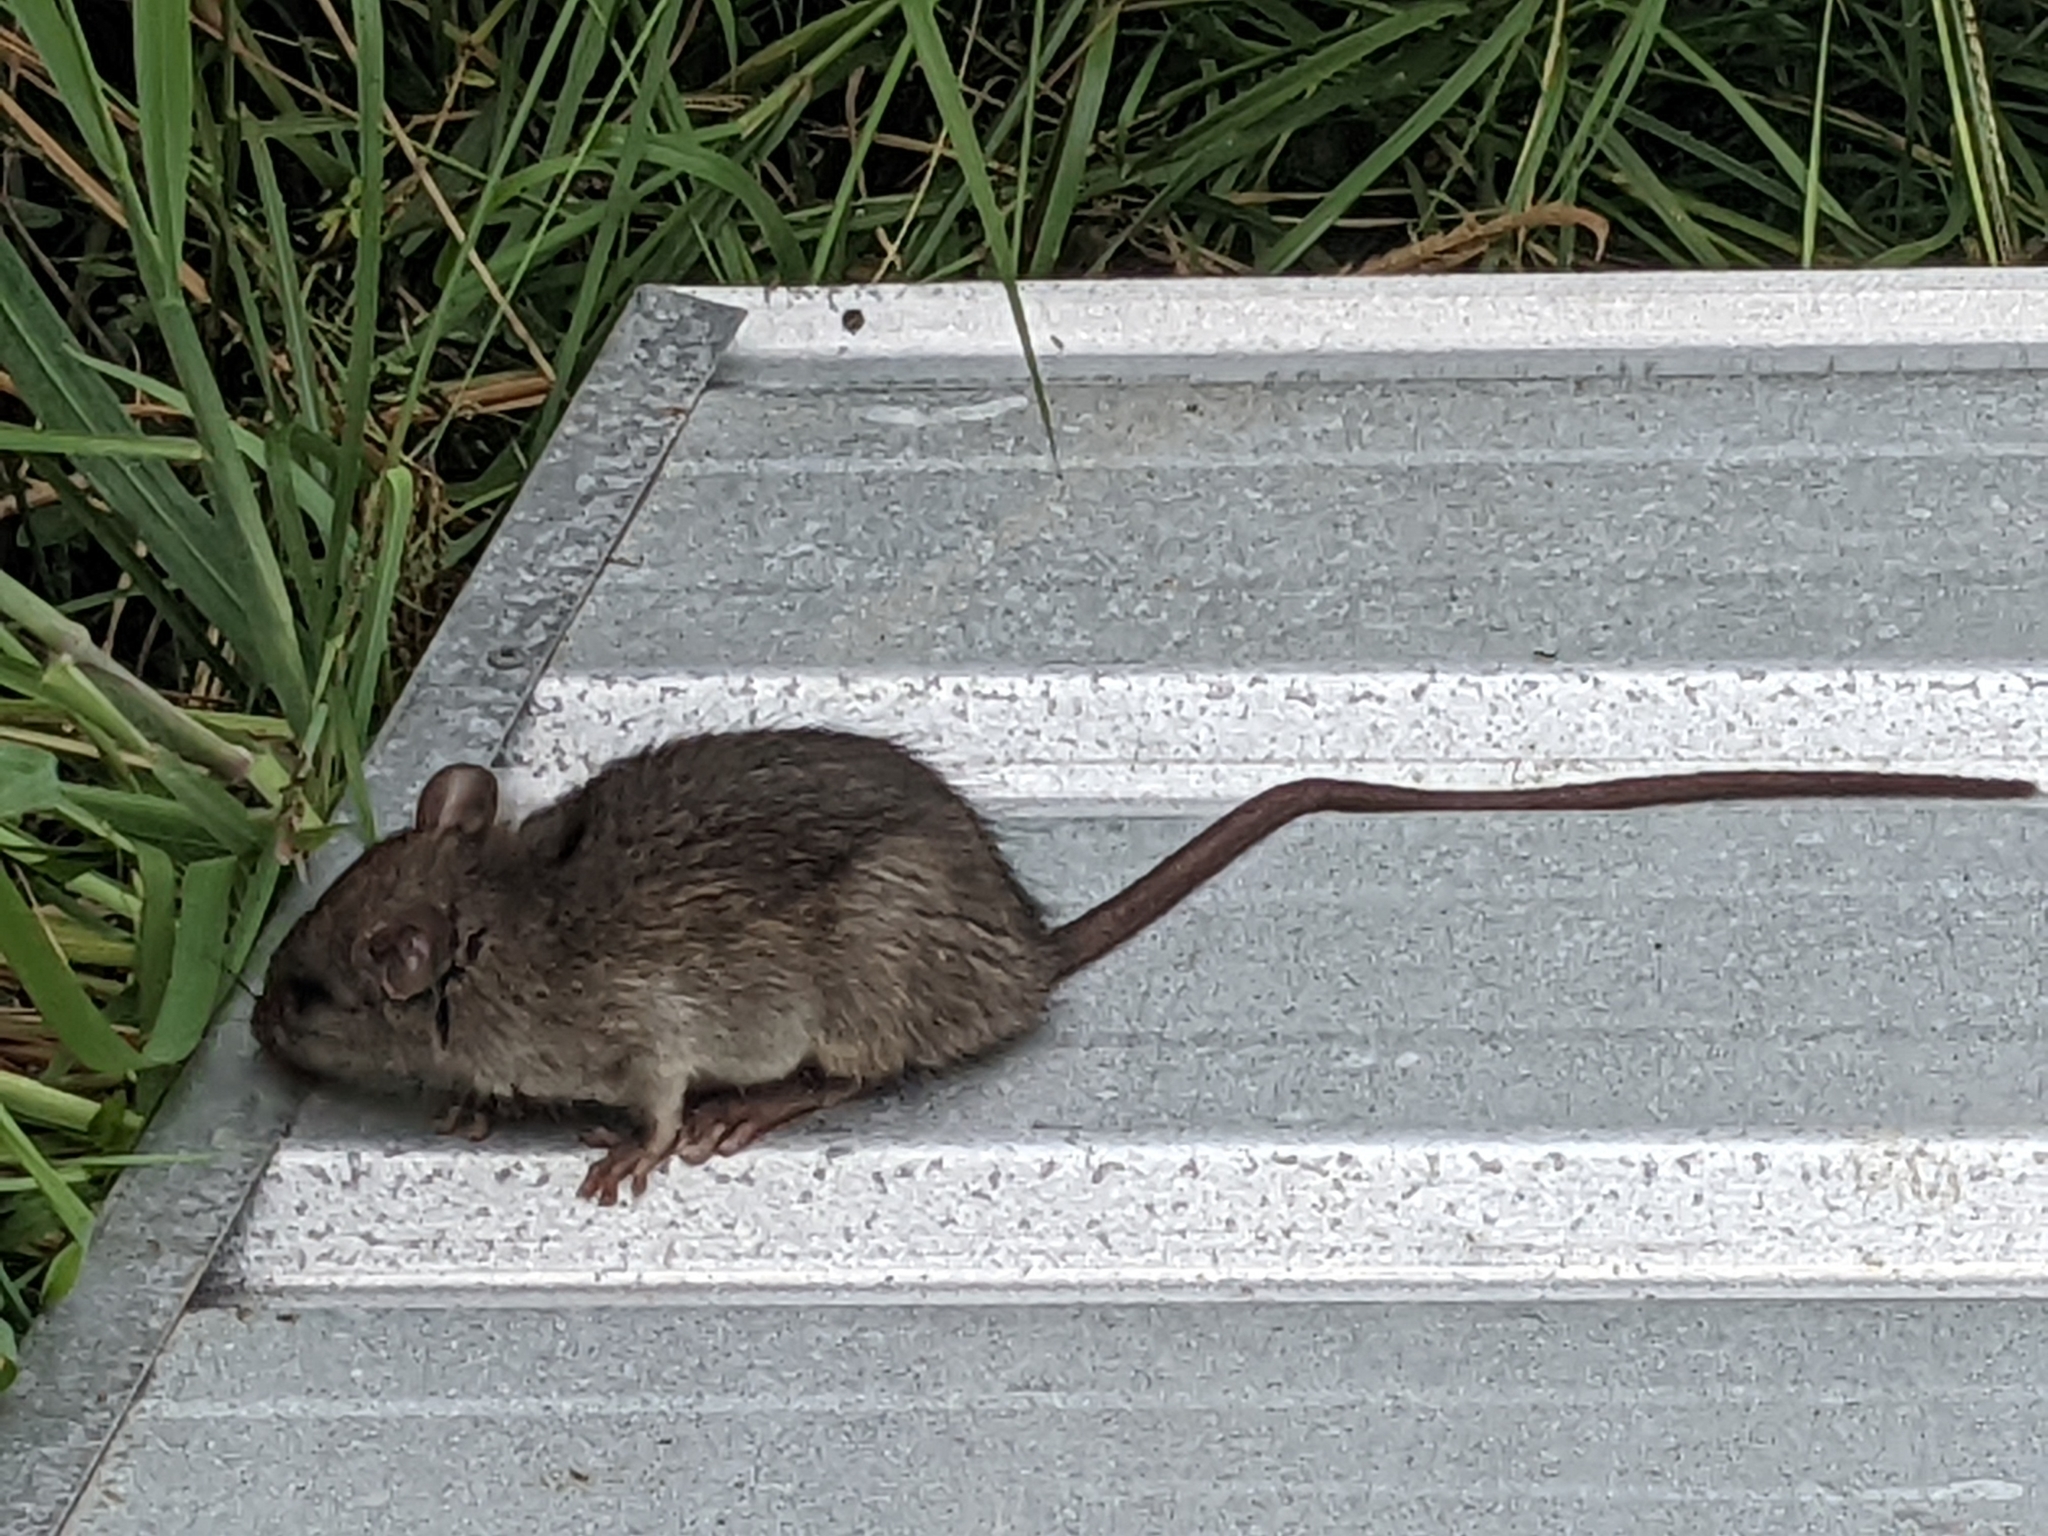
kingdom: Animalia
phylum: Chordata
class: Mammalia
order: Rodentia
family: Muridae
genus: Rattus
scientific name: Rattus rattus
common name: Black rat
